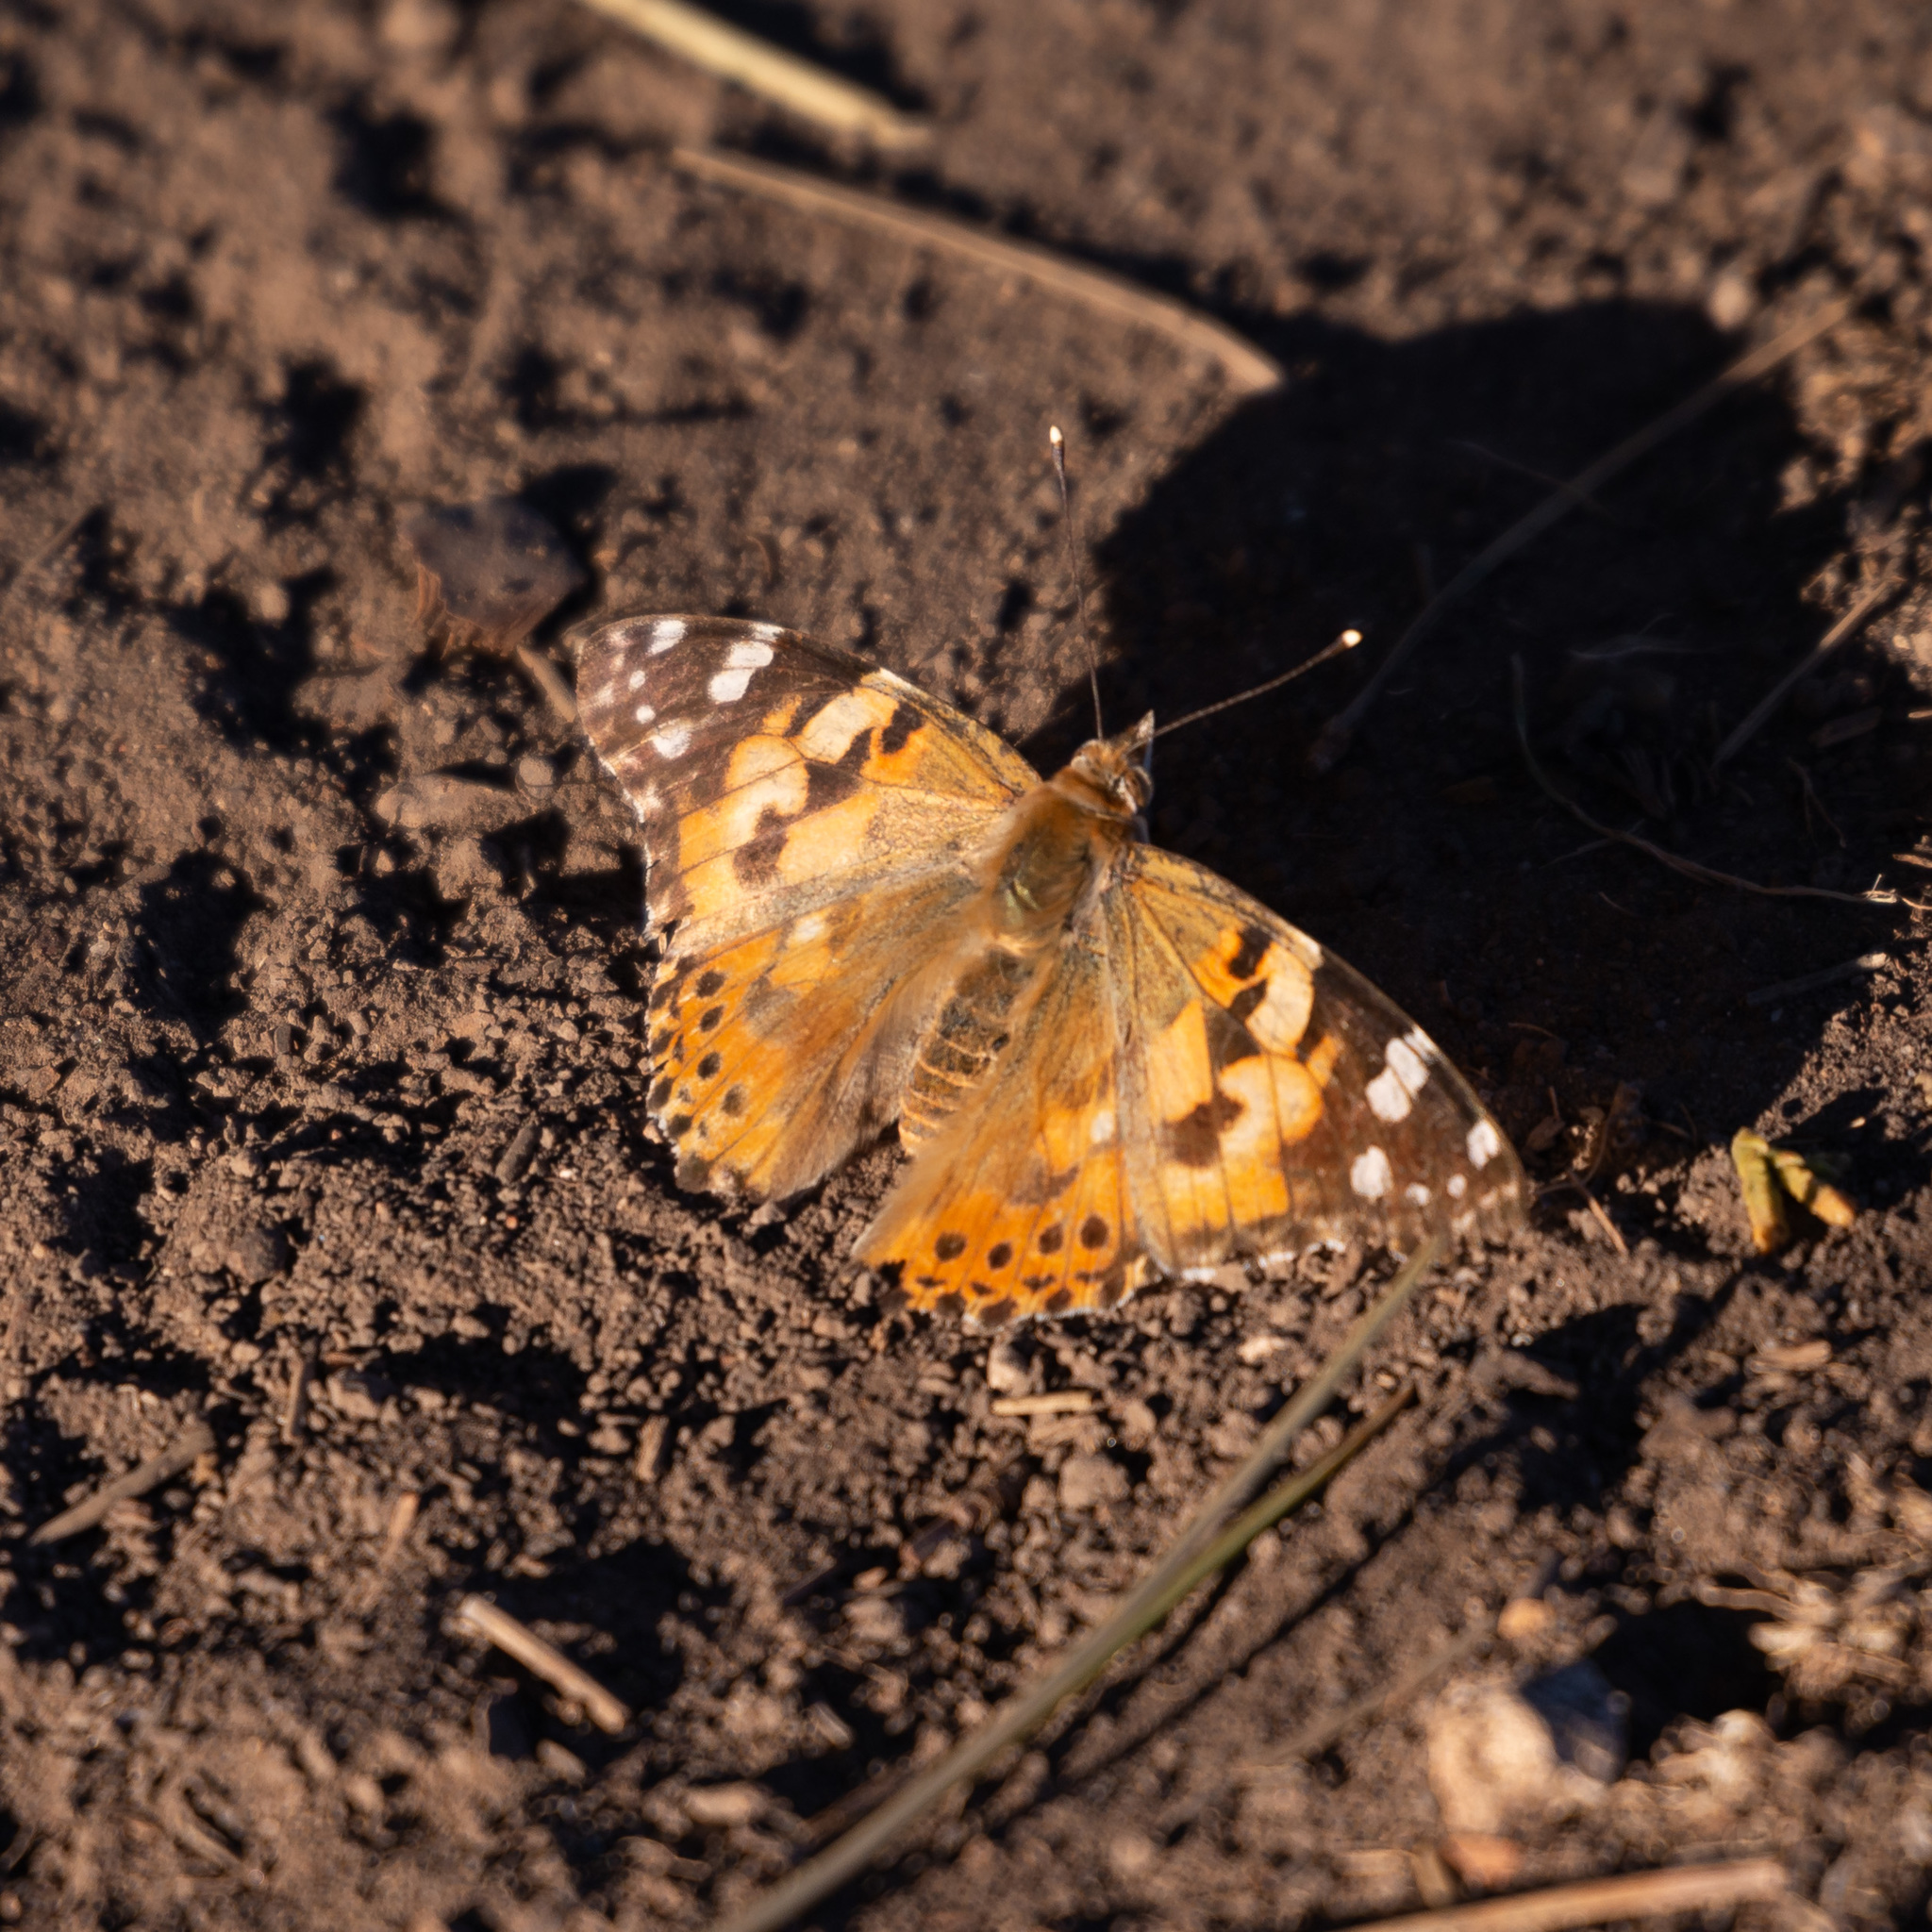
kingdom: Animalia
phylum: Arthropoda
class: Insecta
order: Lepidoptera
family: Nymphalidae
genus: Vanessa
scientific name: Vanessa cardui
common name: Painted lady
